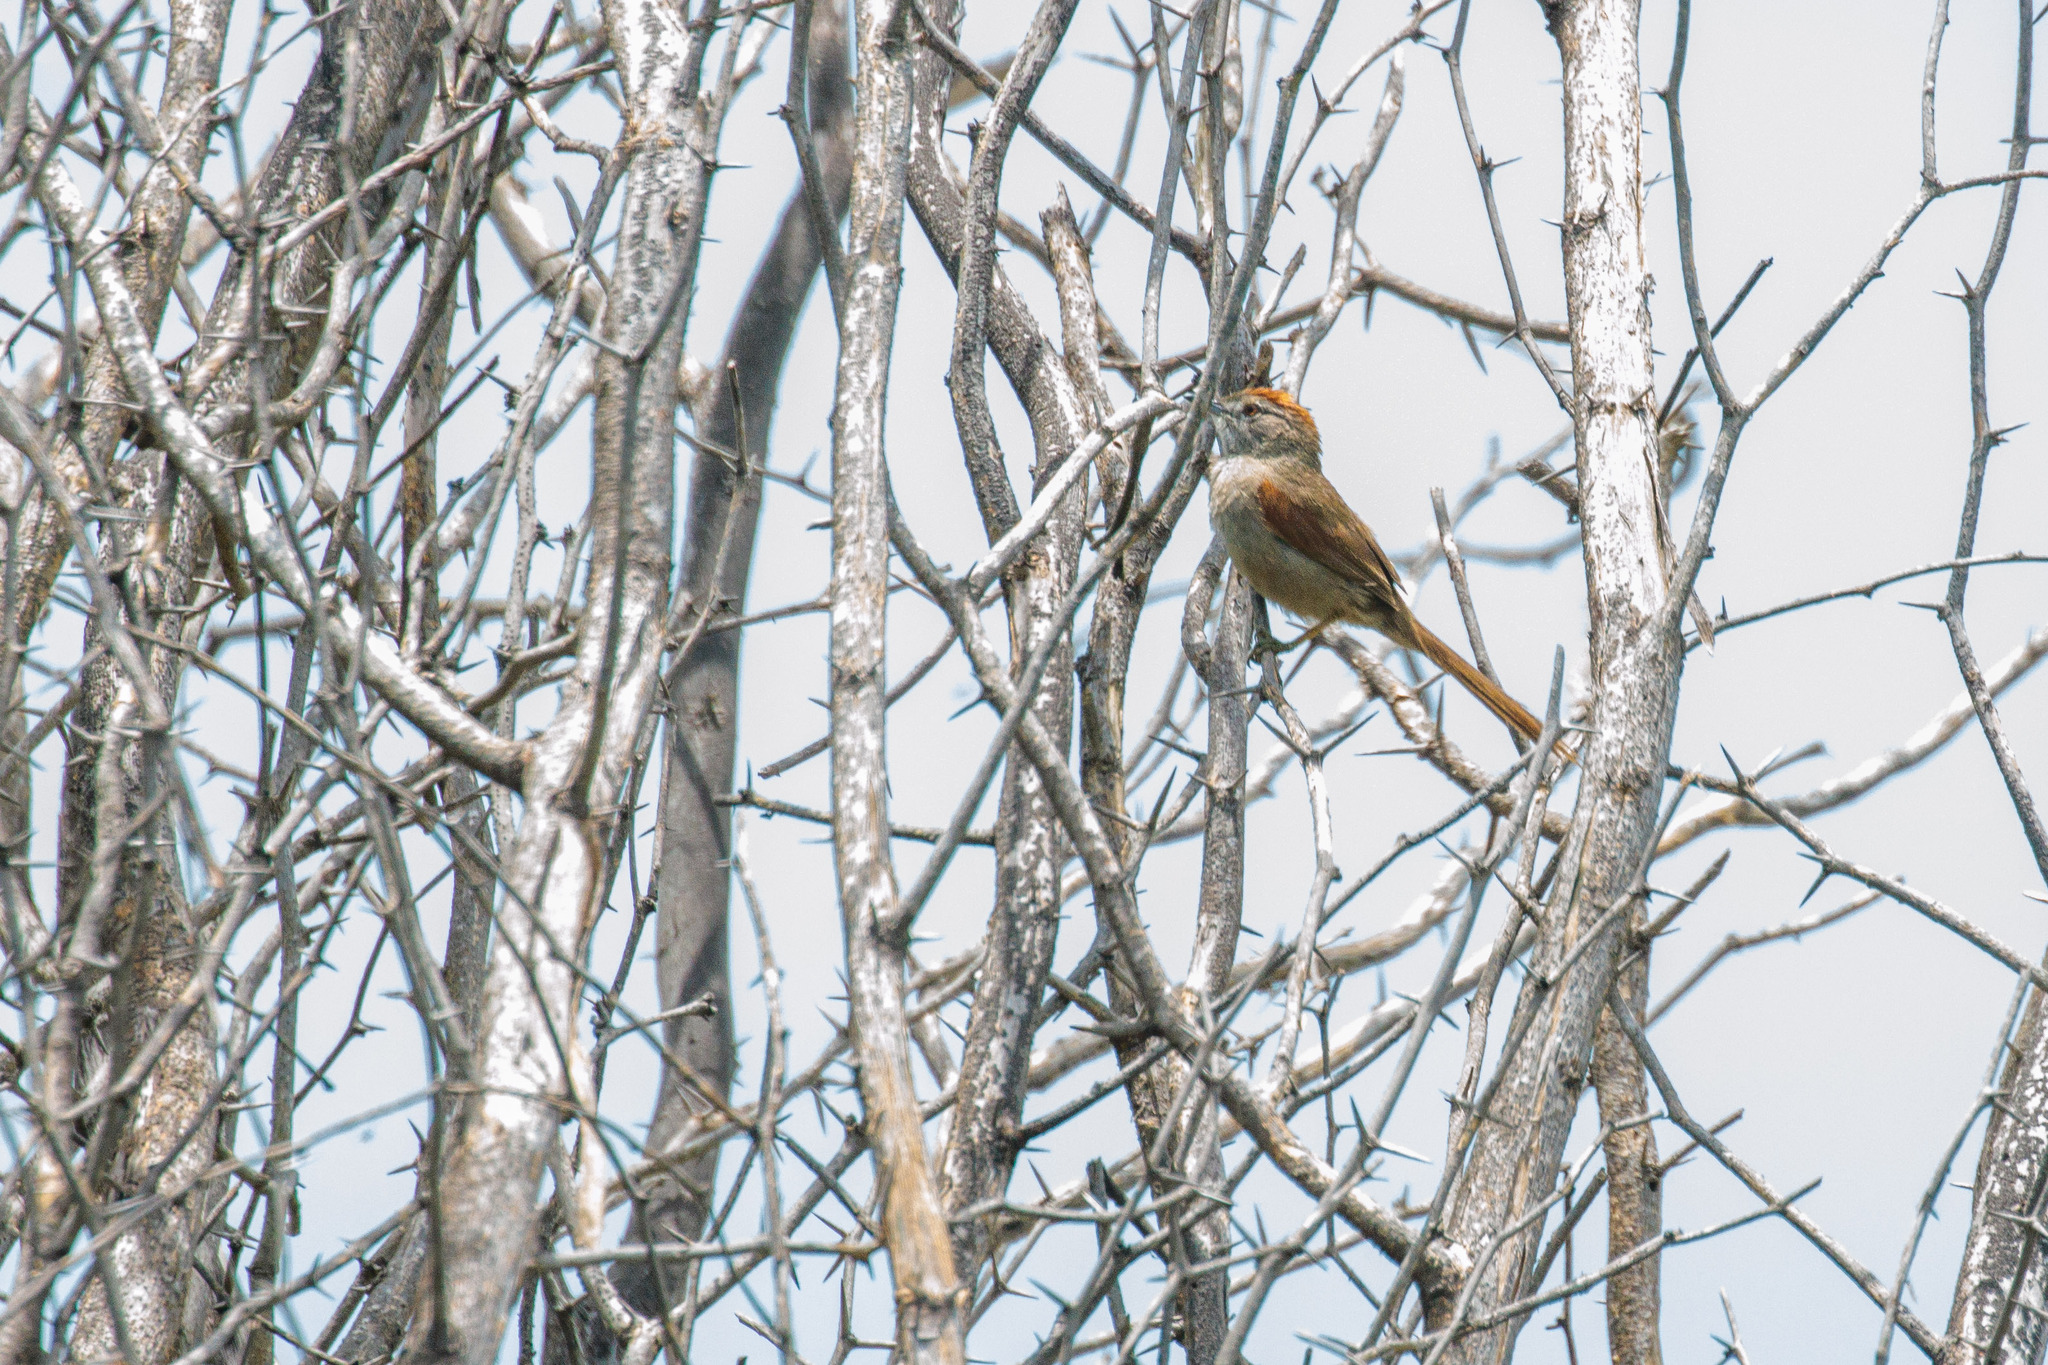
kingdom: Animalia
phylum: Chordata
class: Aves
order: Passeriformes
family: Furnariidae
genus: Synallaxis
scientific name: Synallaxis albescens
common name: Pale-breasted spinetail
